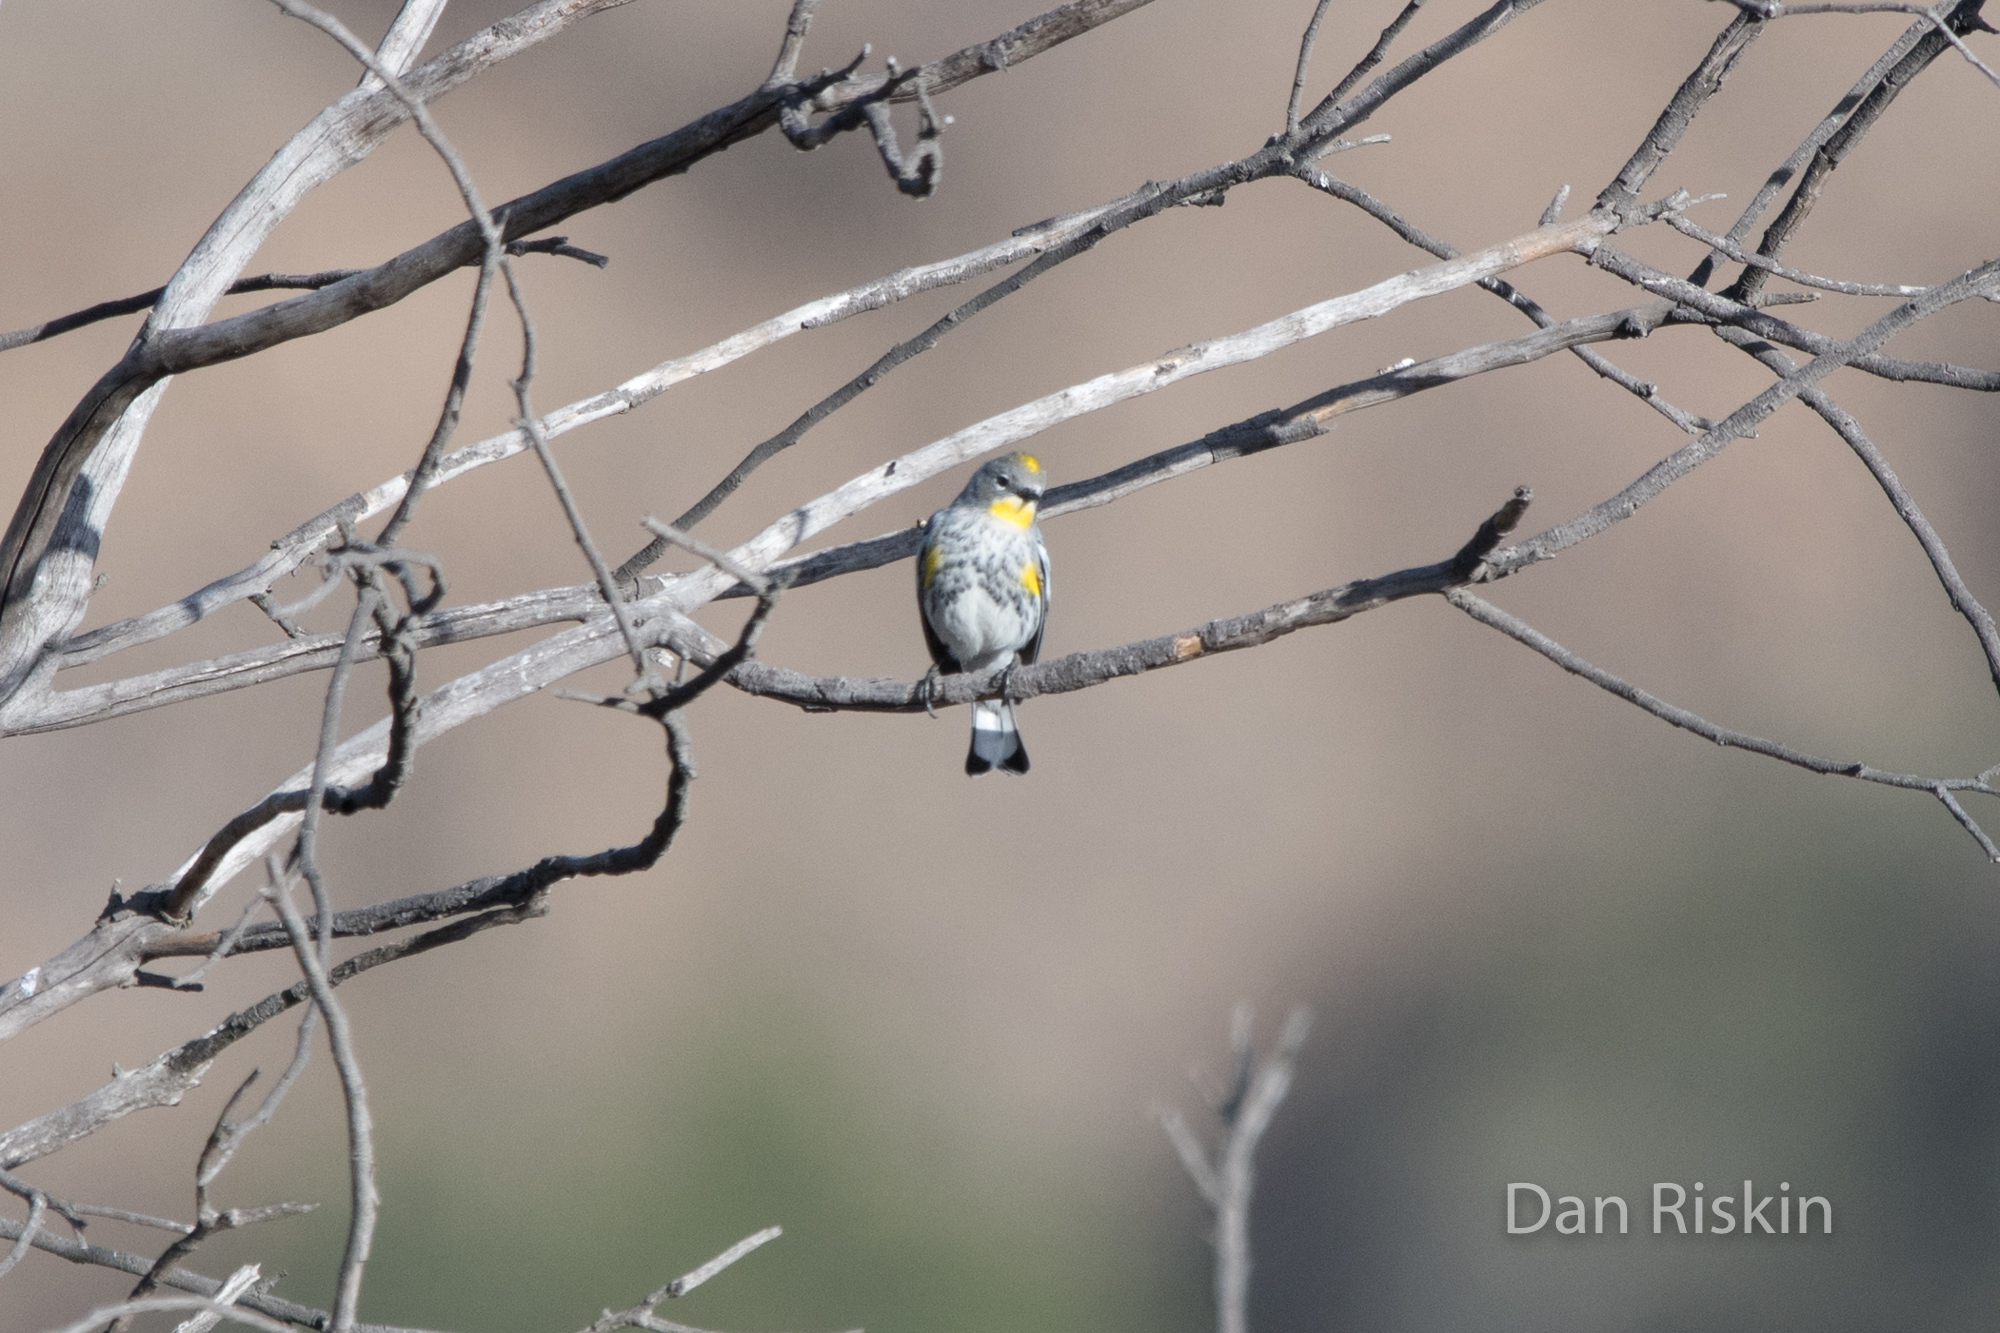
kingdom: Animalia
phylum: Chordata
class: Aves
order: Passeriformes
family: Parulidae
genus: Setophaga
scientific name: Setophaga auduboni
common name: Audubon's warbler
